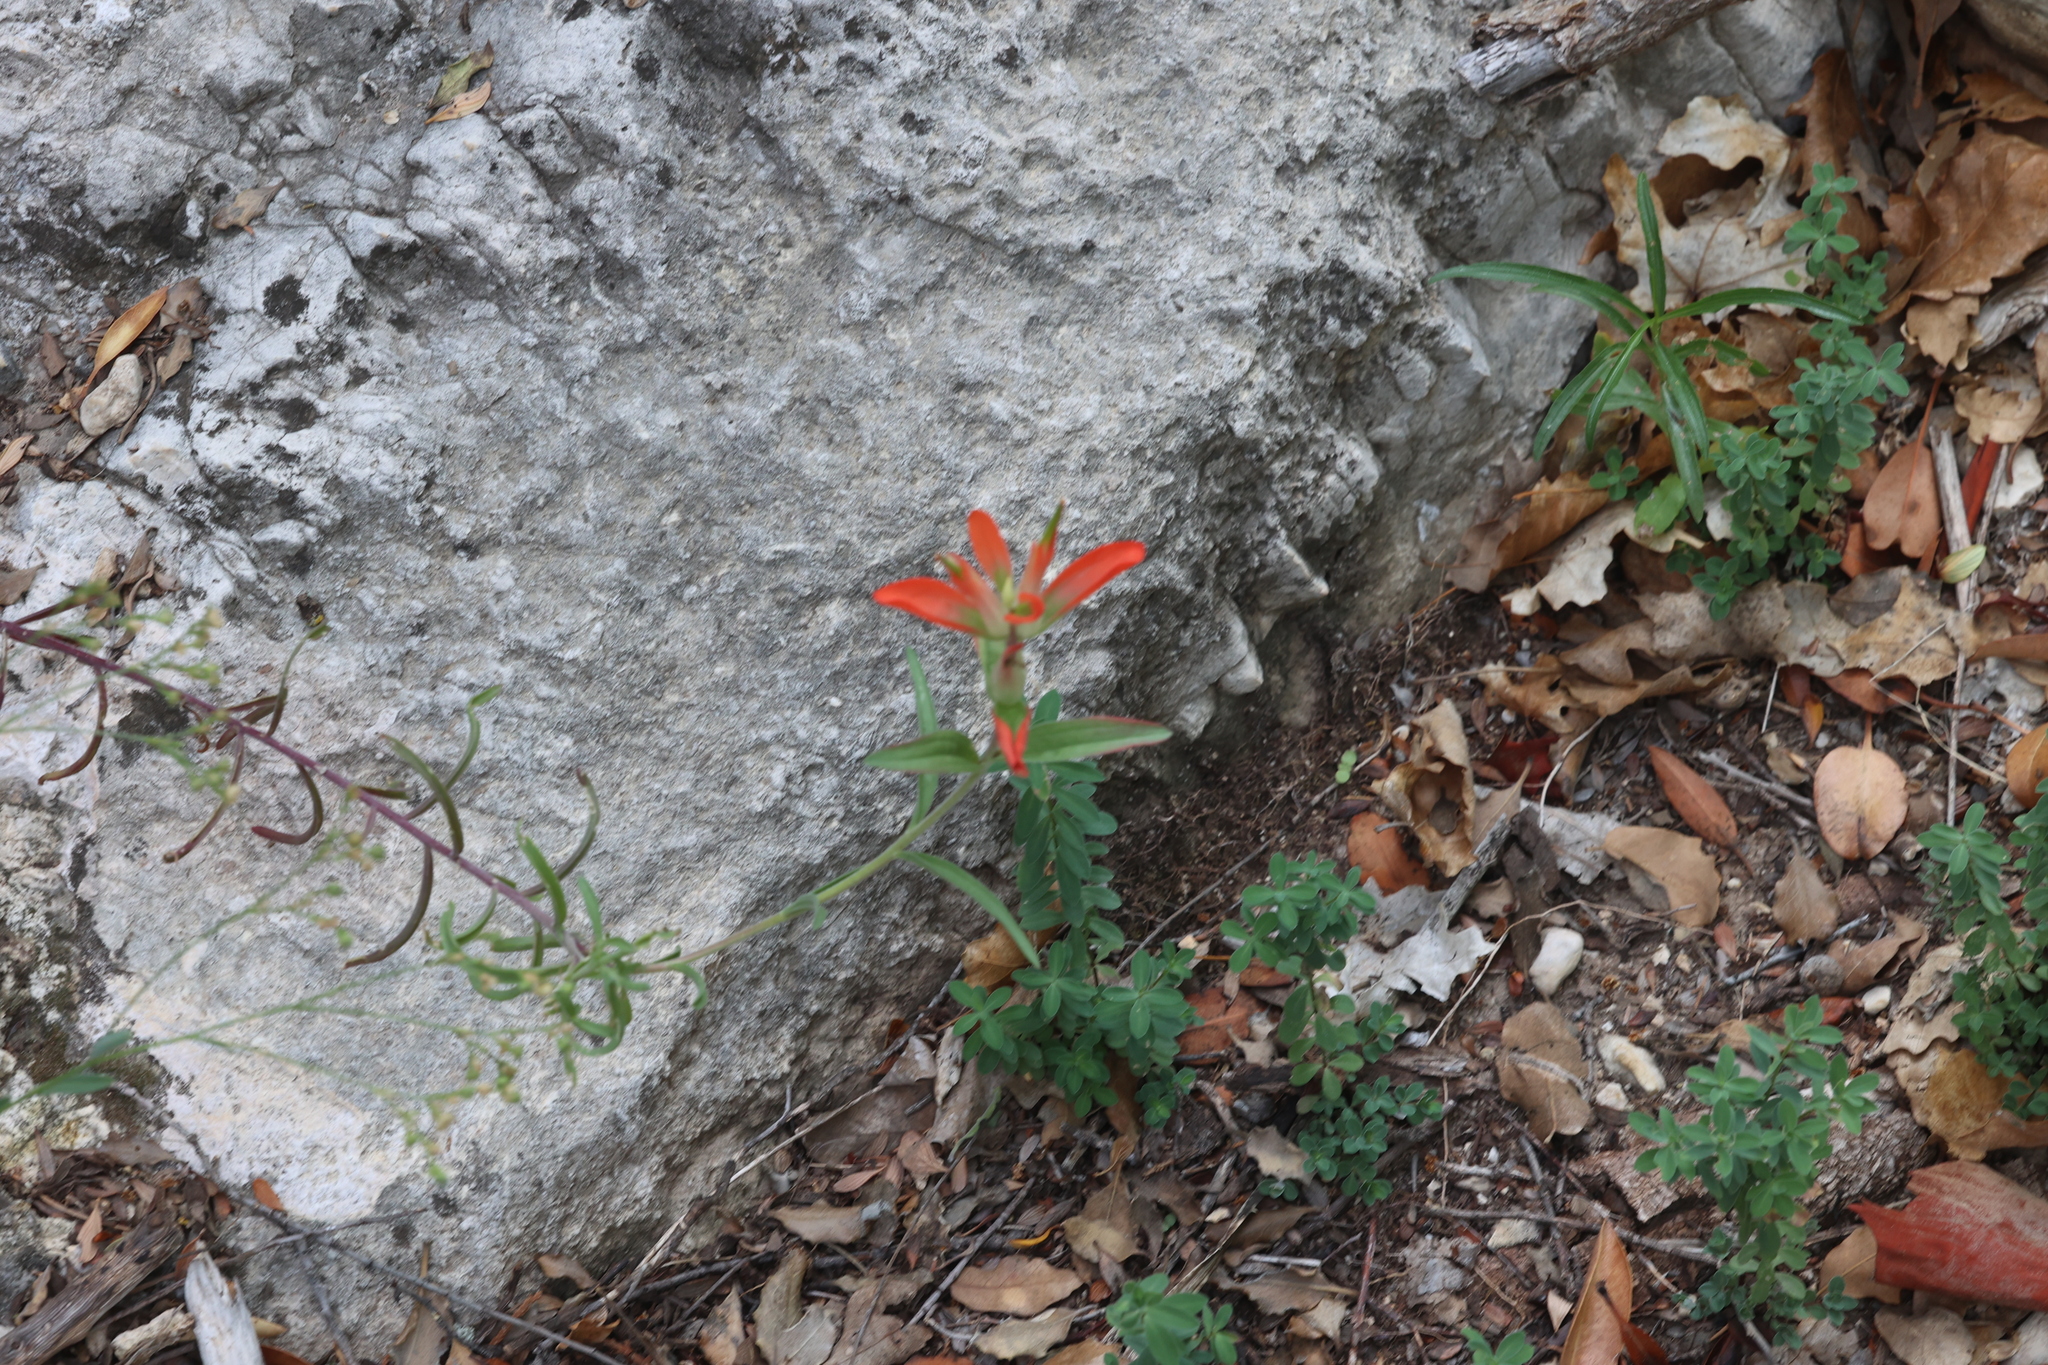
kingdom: Plantae
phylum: Tracheophyta
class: Magnoliopsida
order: Lamiales
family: Orobanchaceae
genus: Castilleja
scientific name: Castilleja integra
